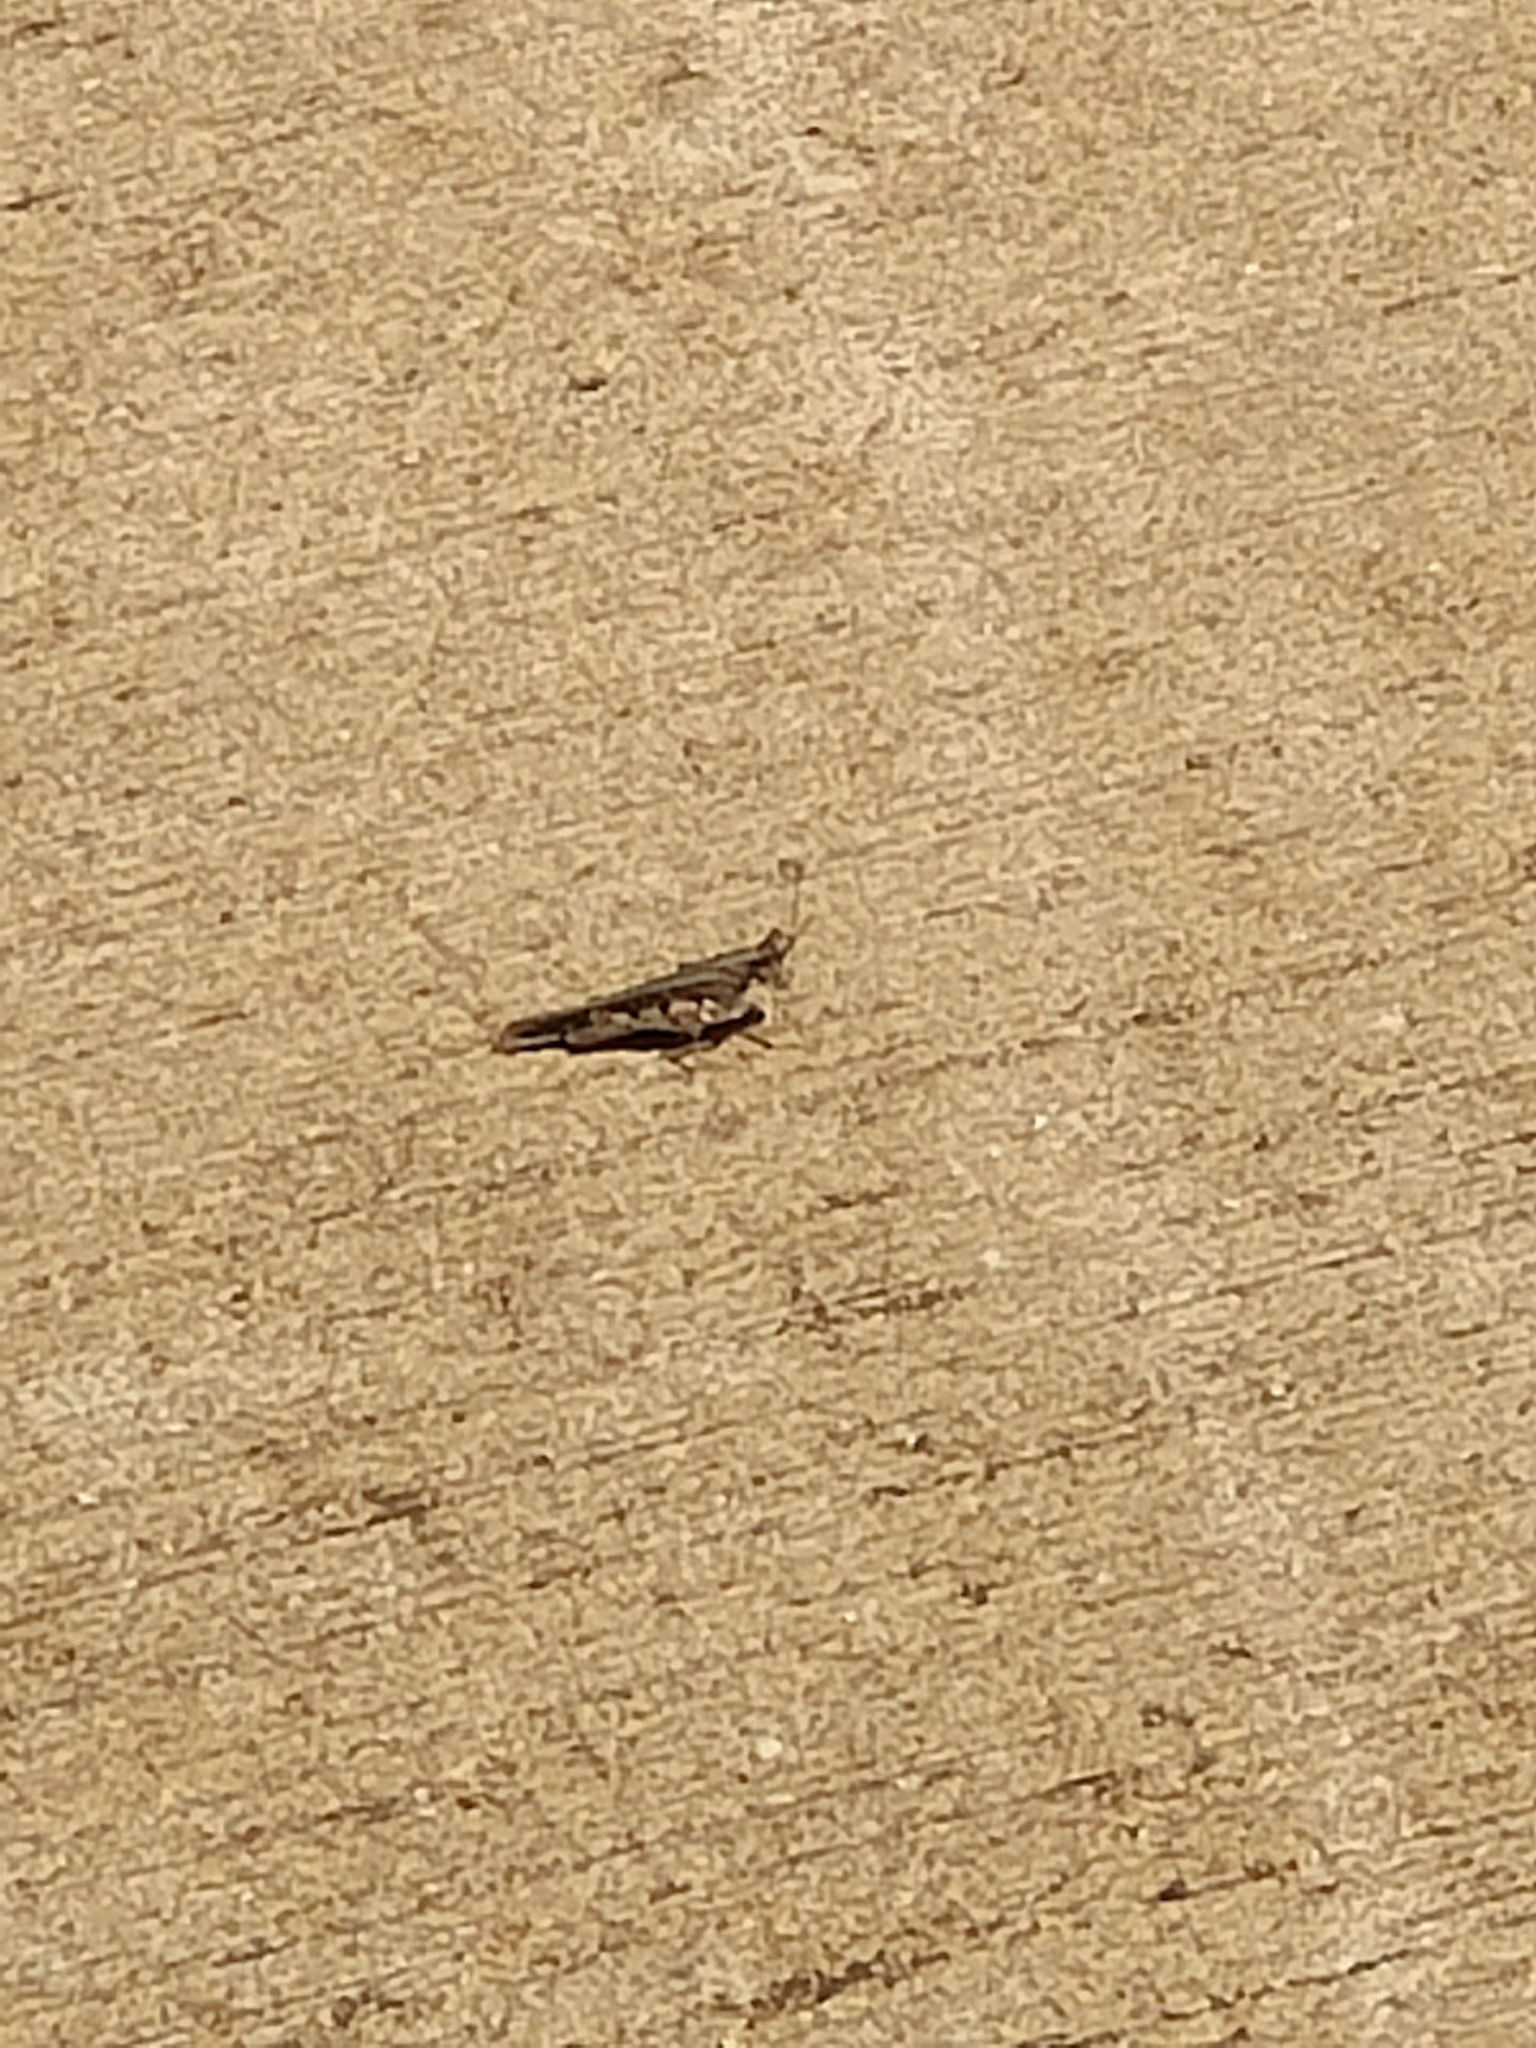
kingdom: Animalia
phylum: Arthropoda
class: Insecta
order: Orthoptera
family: Acrididae
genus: Pycnostictus
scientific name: Pycnostictus seriatus
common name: Common bandwing
